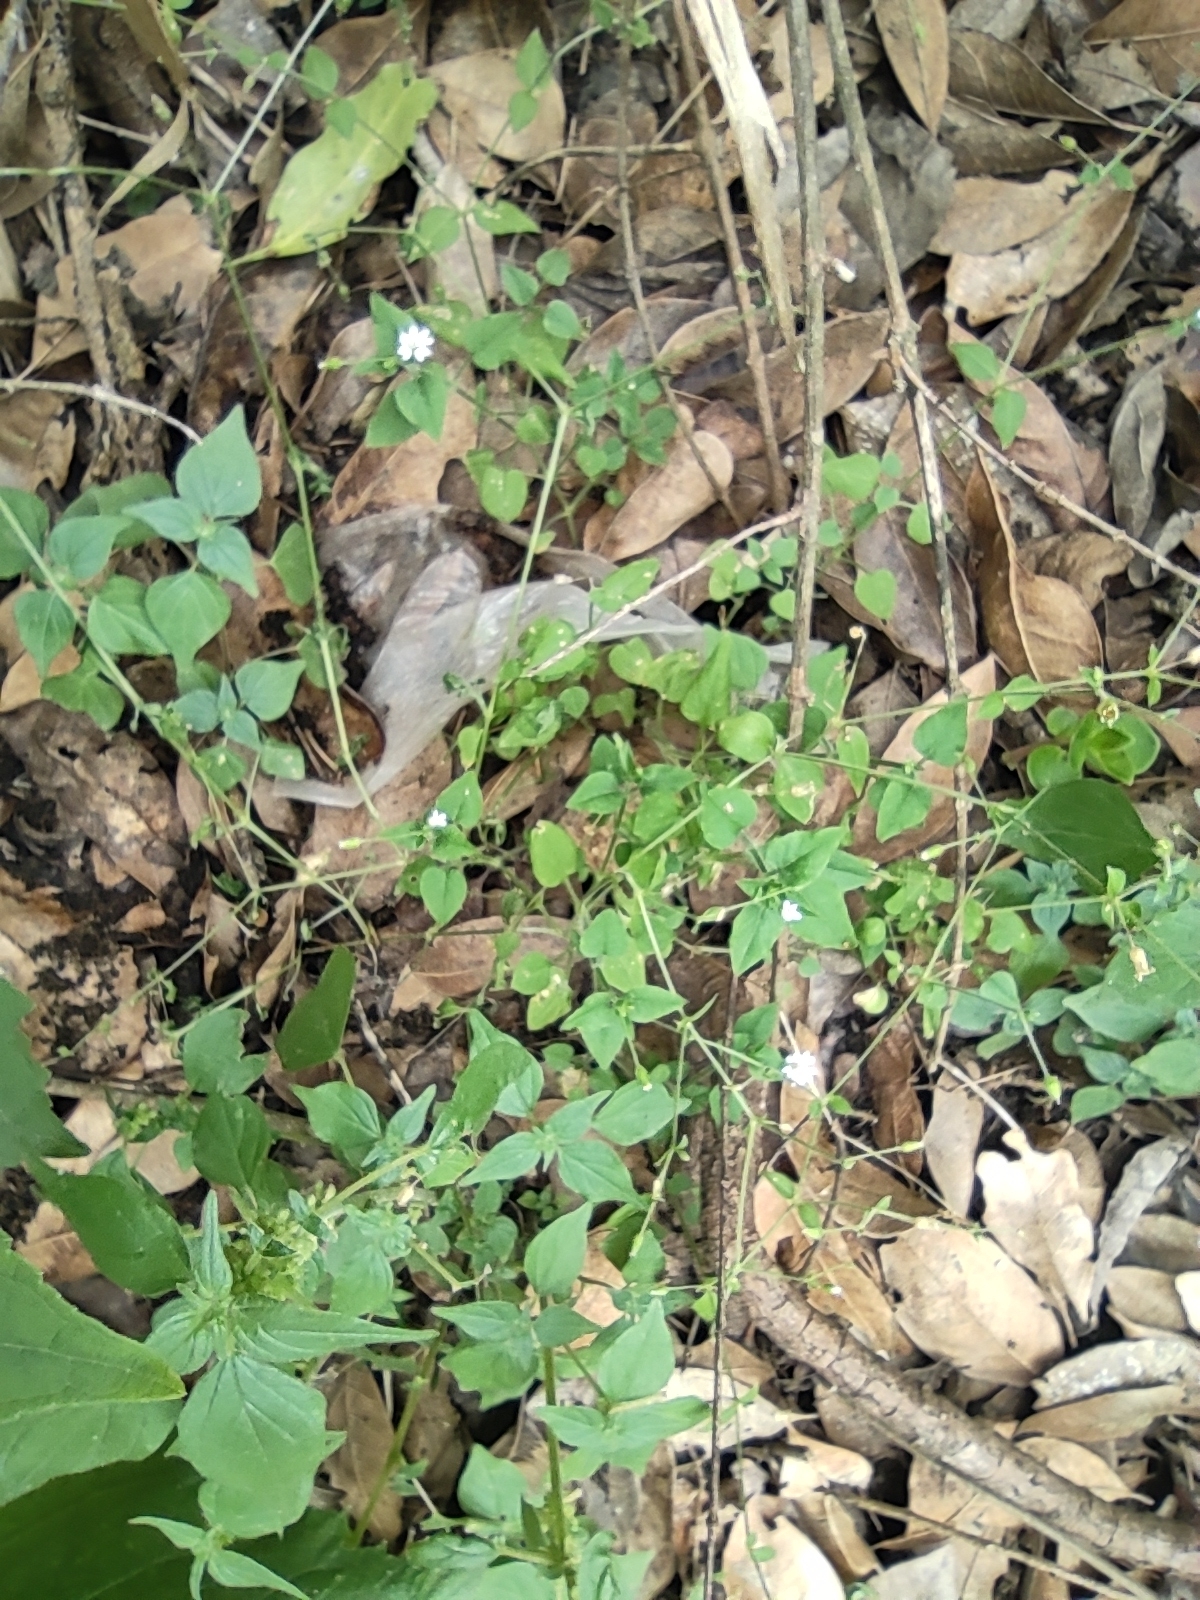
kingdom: Plantae
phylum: Tracheophyta
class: Magnoliopsida
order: Caryophyllales
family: Caryophyllaceae
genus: Stellaria
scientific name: Stellaria cuspidata
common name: Mexican chickweed
